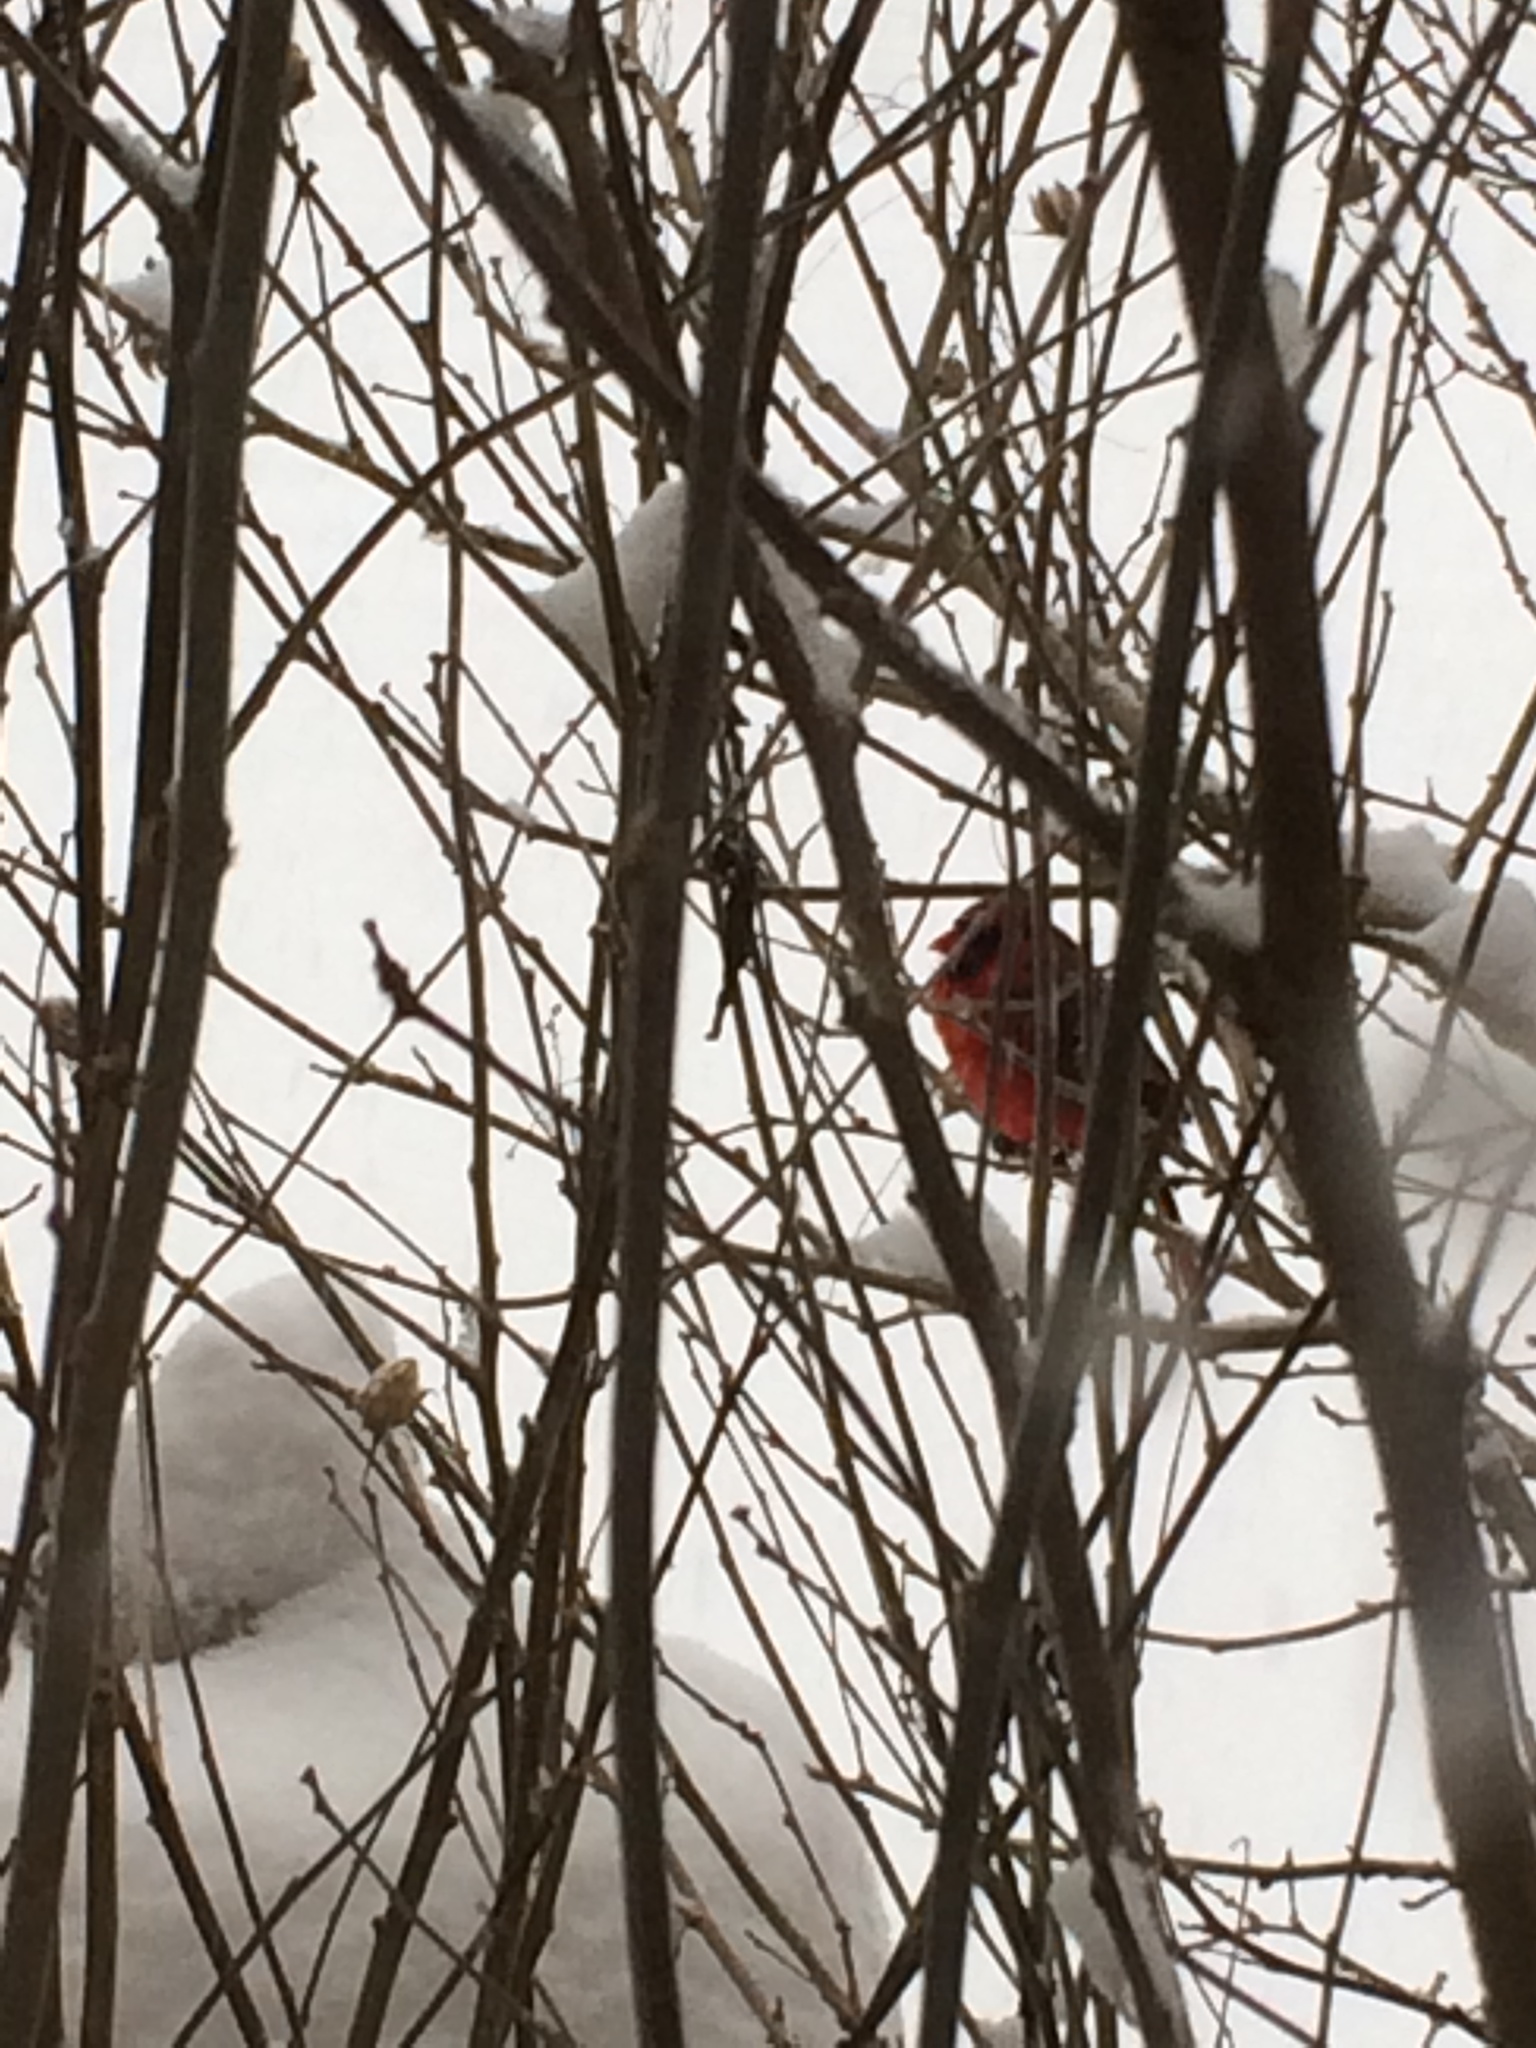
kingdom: Animalia
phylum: Chordata
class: Aves
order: Passeriformes
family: Cardinalidae
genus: Cardinalis
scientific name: Cardinalis cardinalis
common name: Northern cardinal
